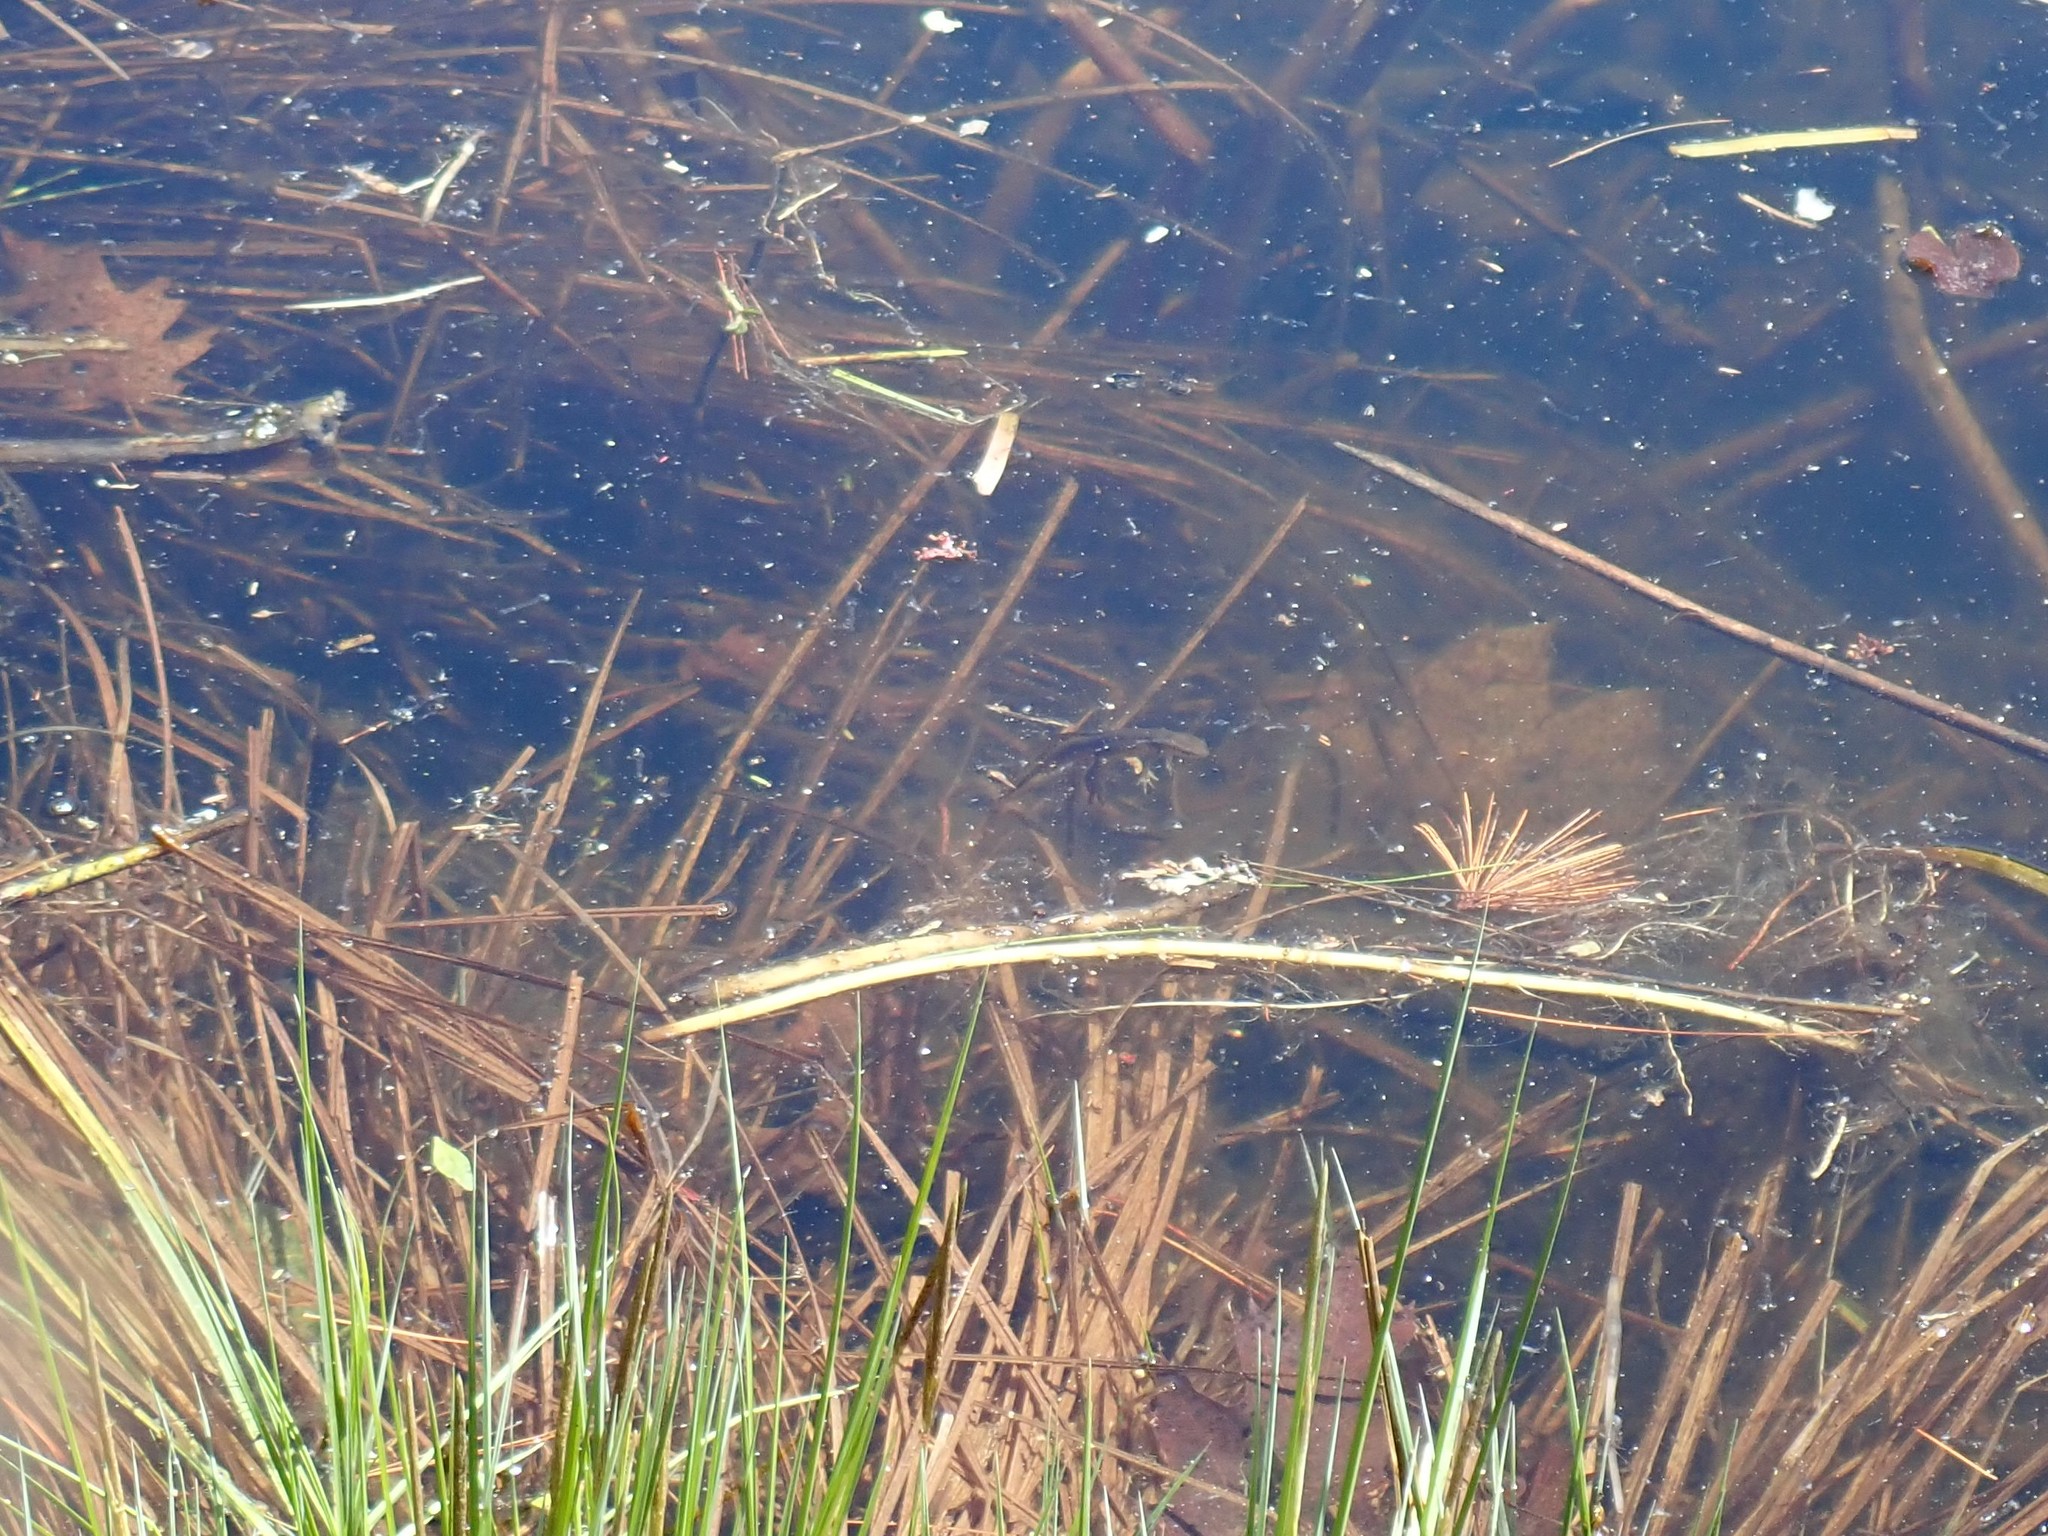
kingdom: Animalia
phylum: Chordata
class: Amphibia
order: Caudata
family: Salamandridae
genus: Notophthalmus
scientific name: Notophthalmus viridescens
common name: Eastern newt
